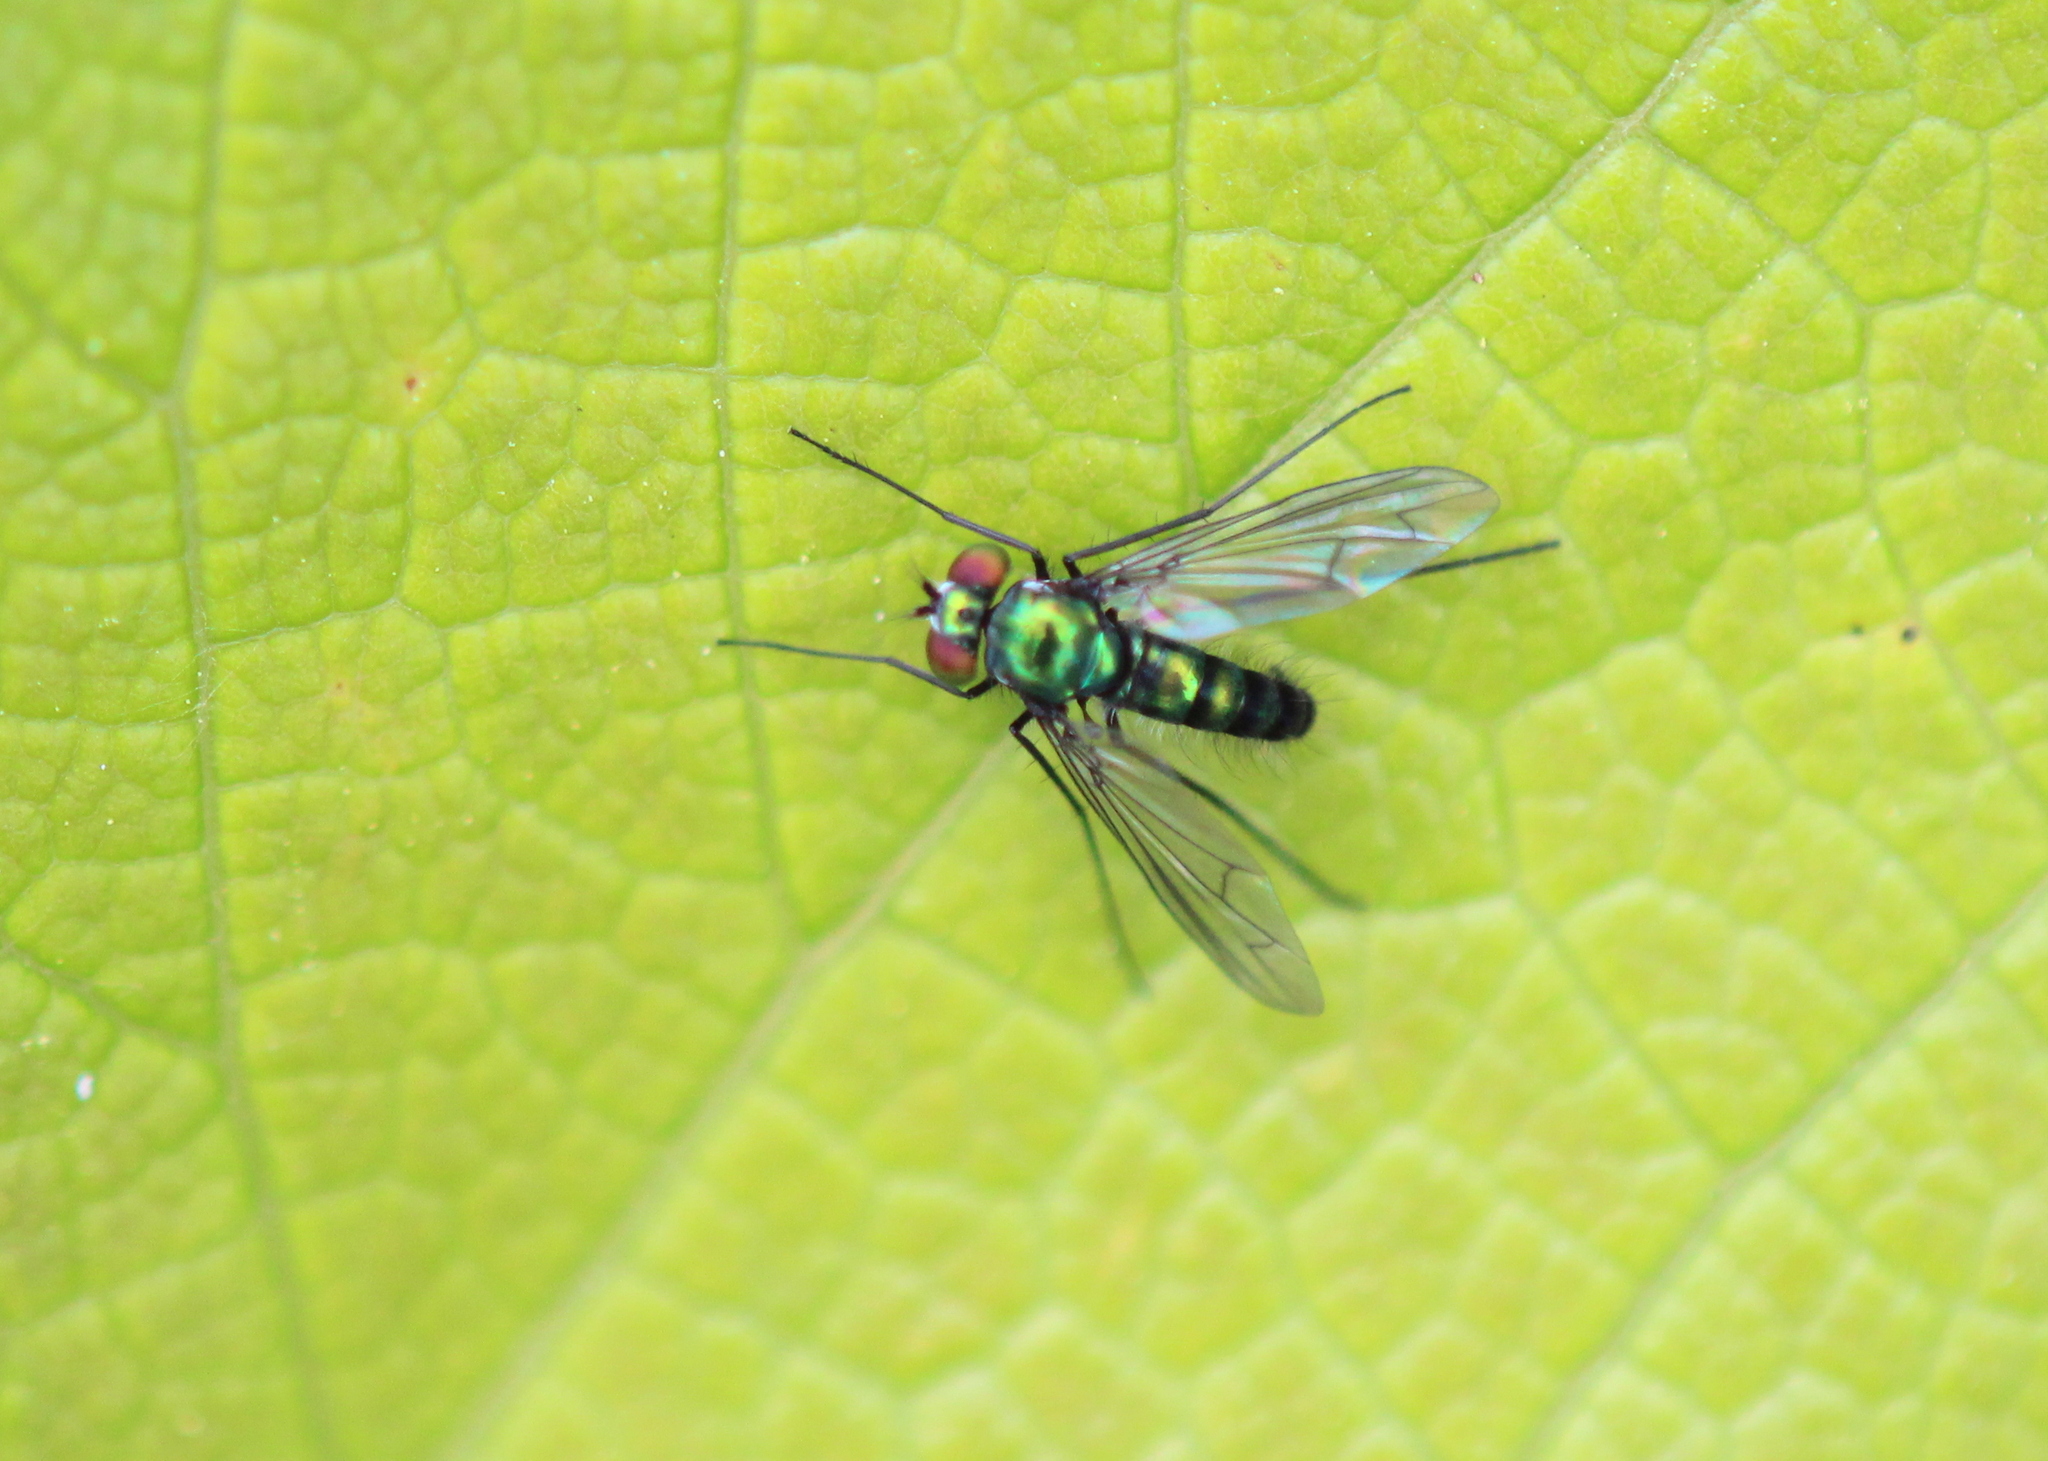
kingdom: Animalia
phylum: Arthropoda
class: Insecta
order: Diptera
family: Dolichopodidae
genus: Condylostylus
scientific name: Condylostylus patibulatus
